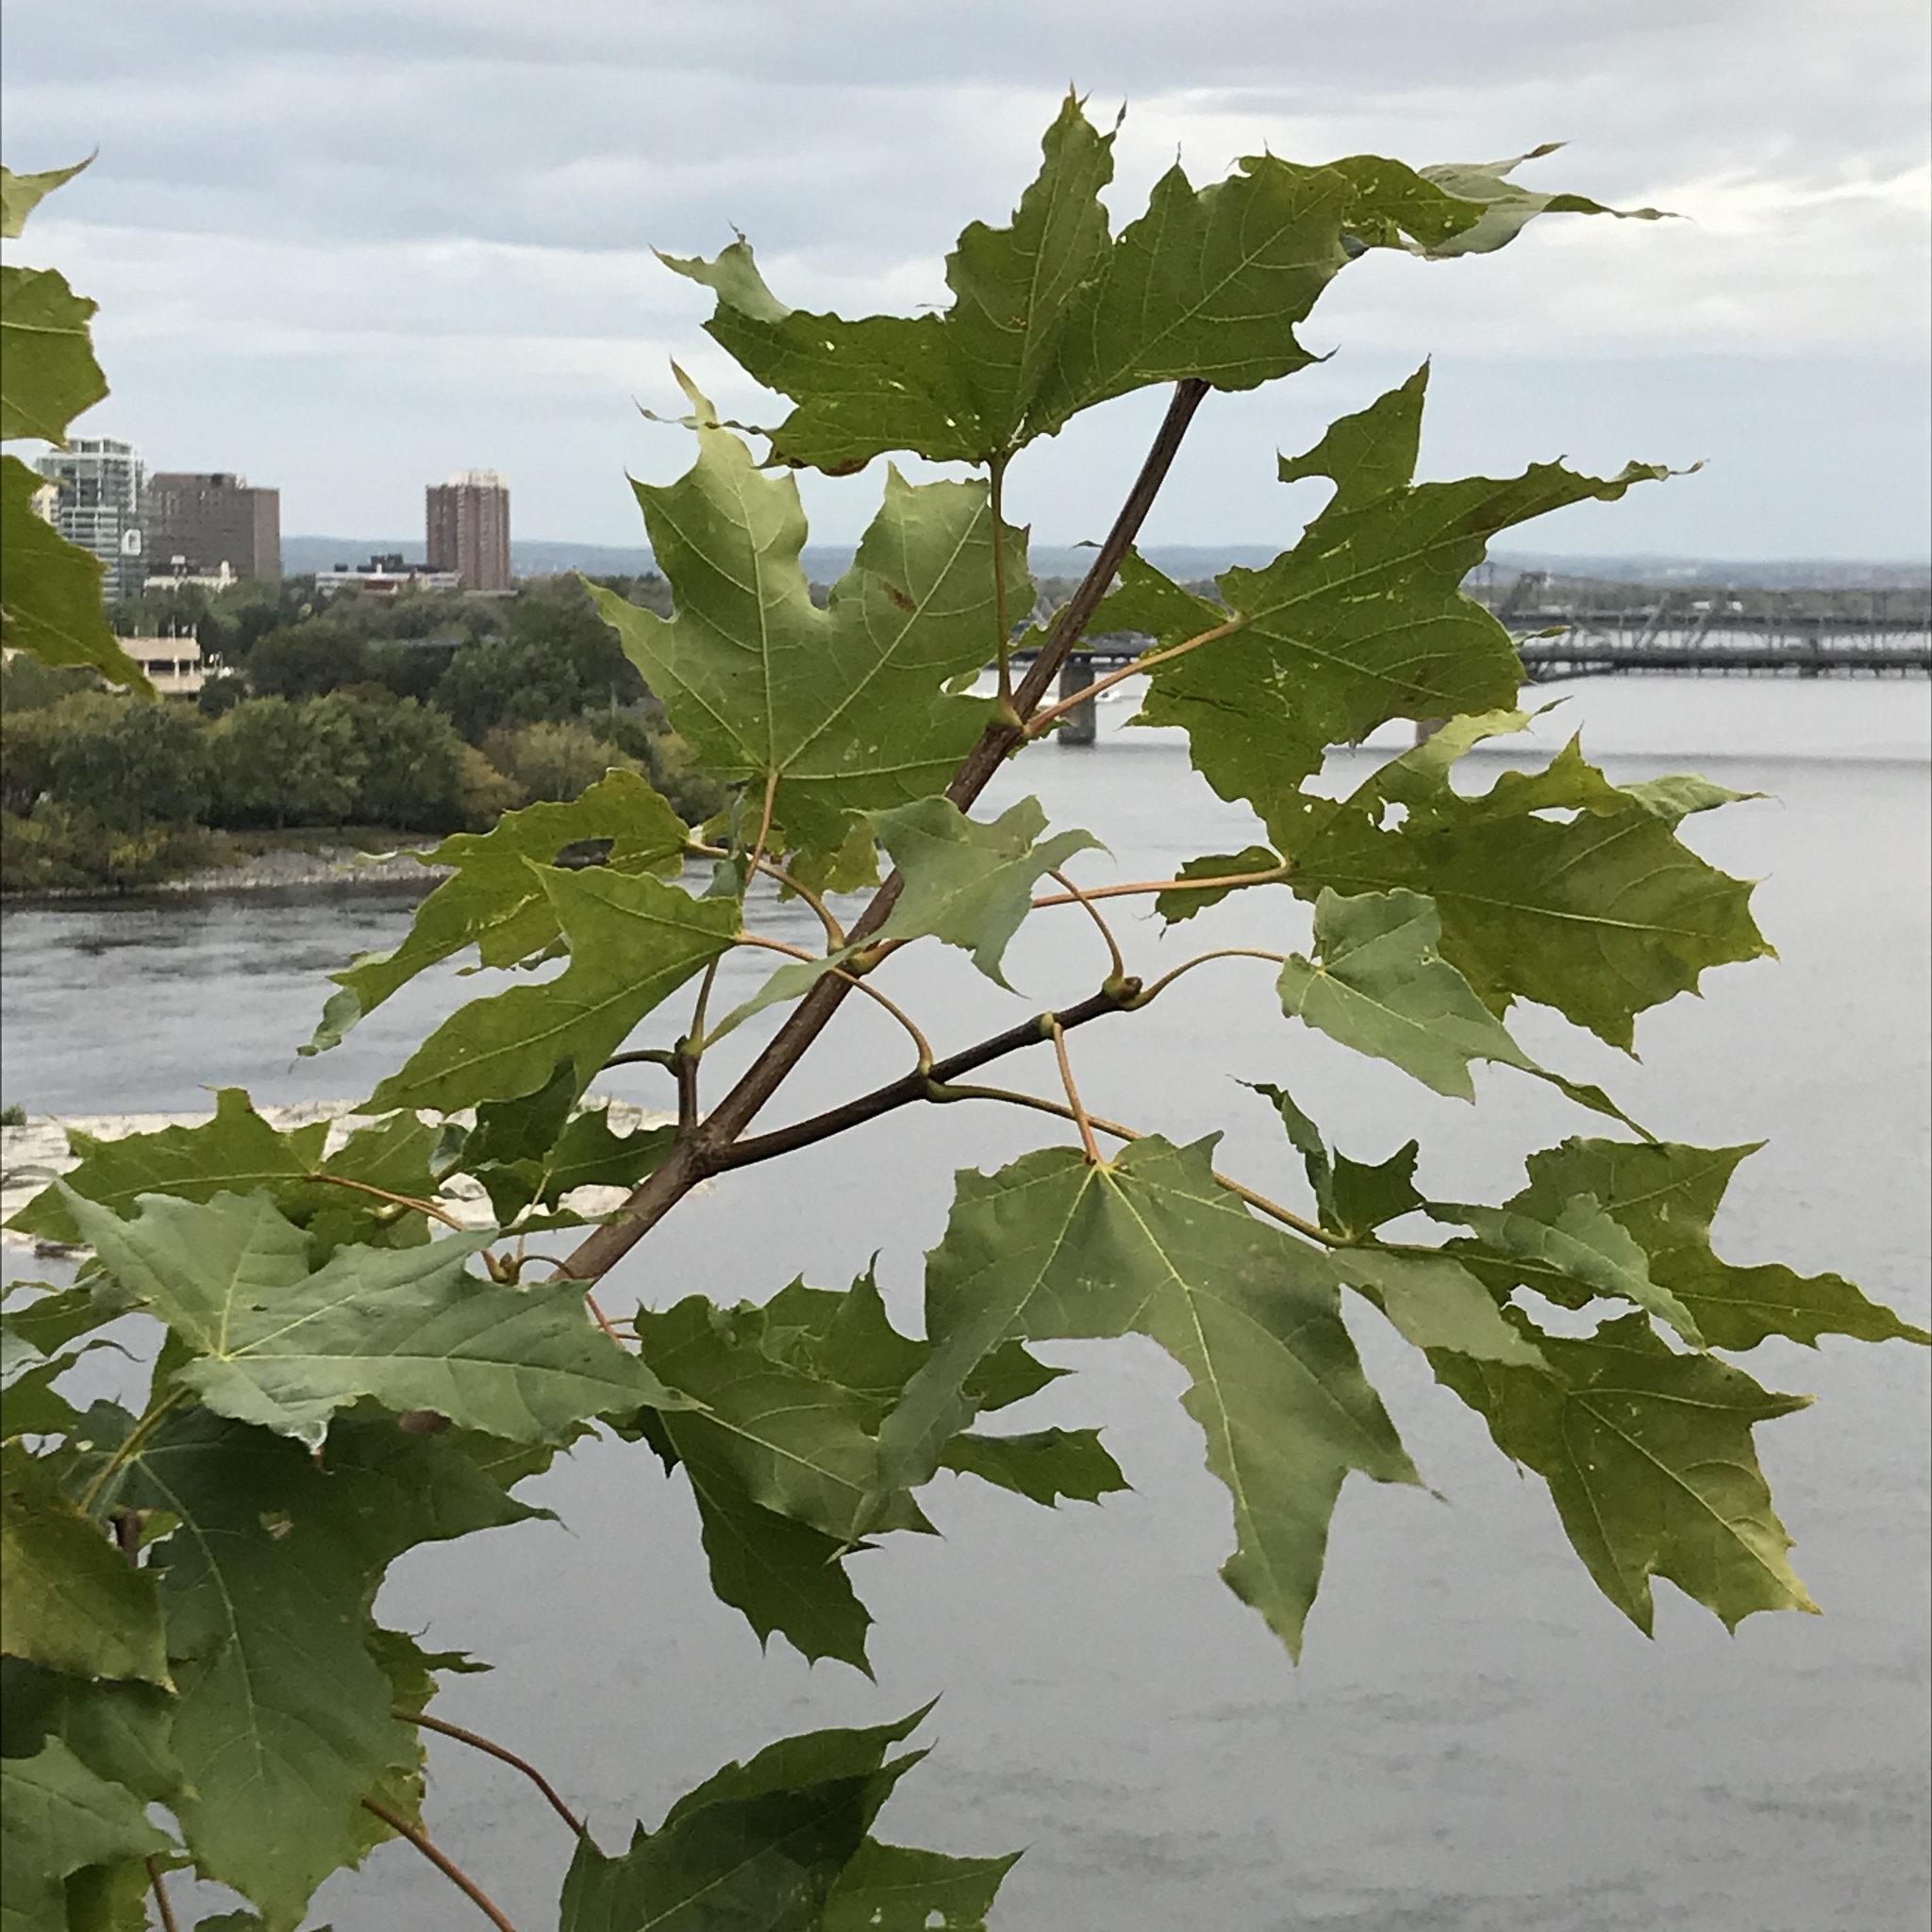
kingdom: Plantae
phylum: Tracheophyta
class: Magnoliopsida
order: Sapindales
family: Sapindaceae
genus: Acer
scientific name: Acer platanoides
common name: Norway maple
